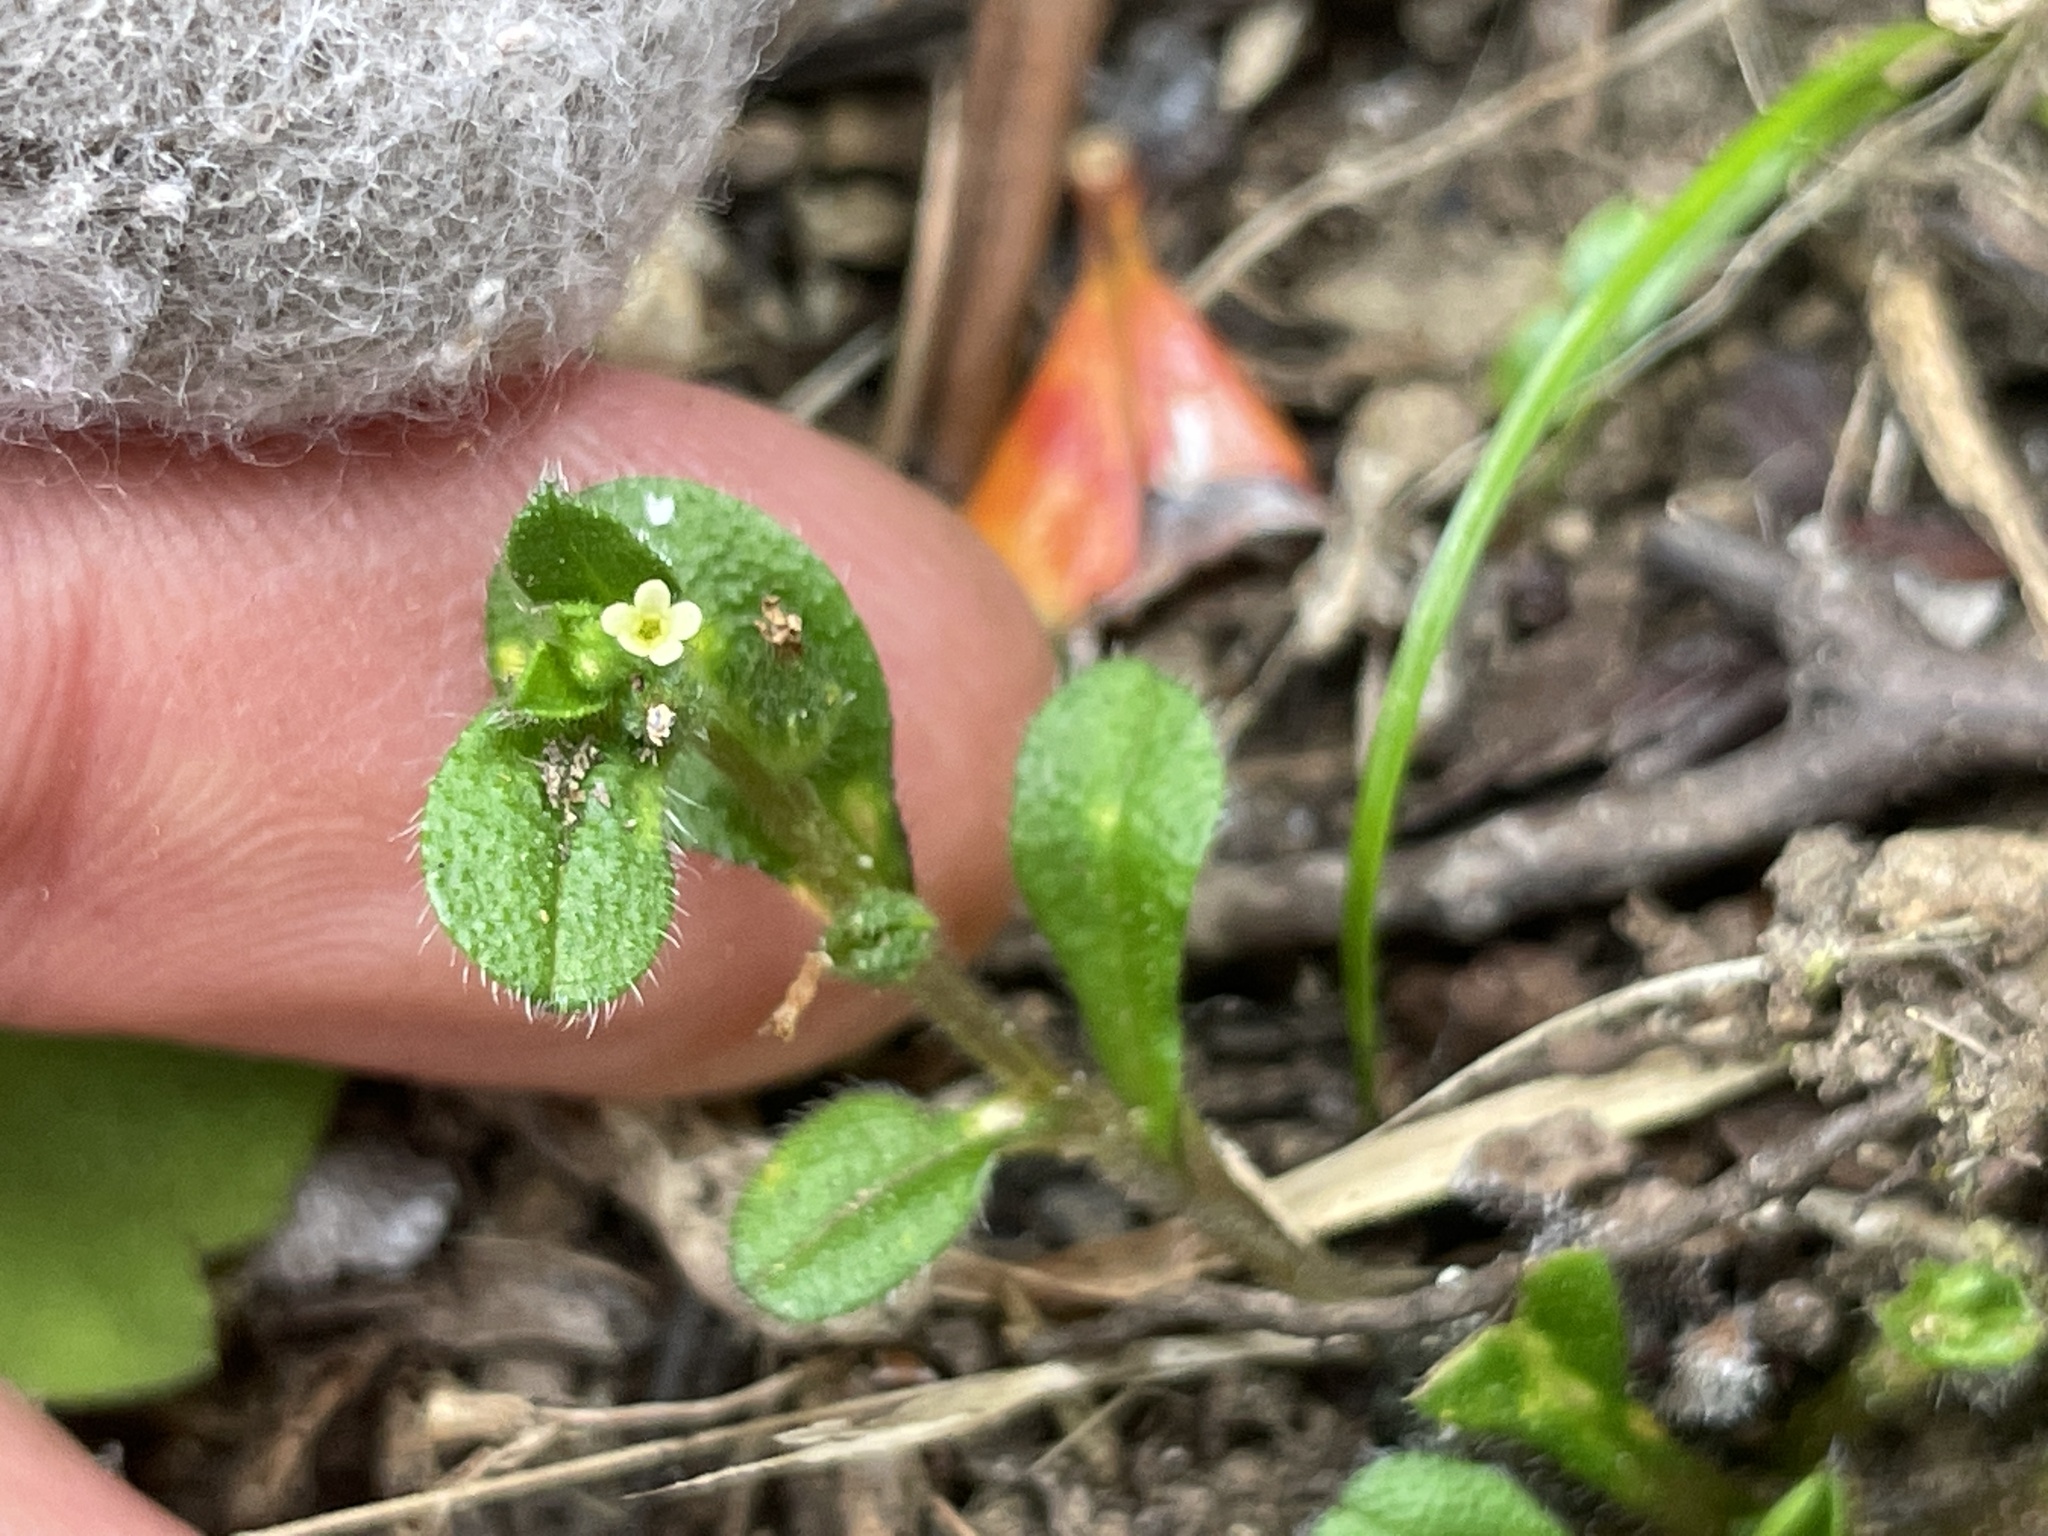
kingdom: Plantae
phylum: Tracheophyta
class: Magnoliopsida
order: Boraginales
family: Boraginaceae
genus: Myosotis
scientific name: Myosotis antarctica
